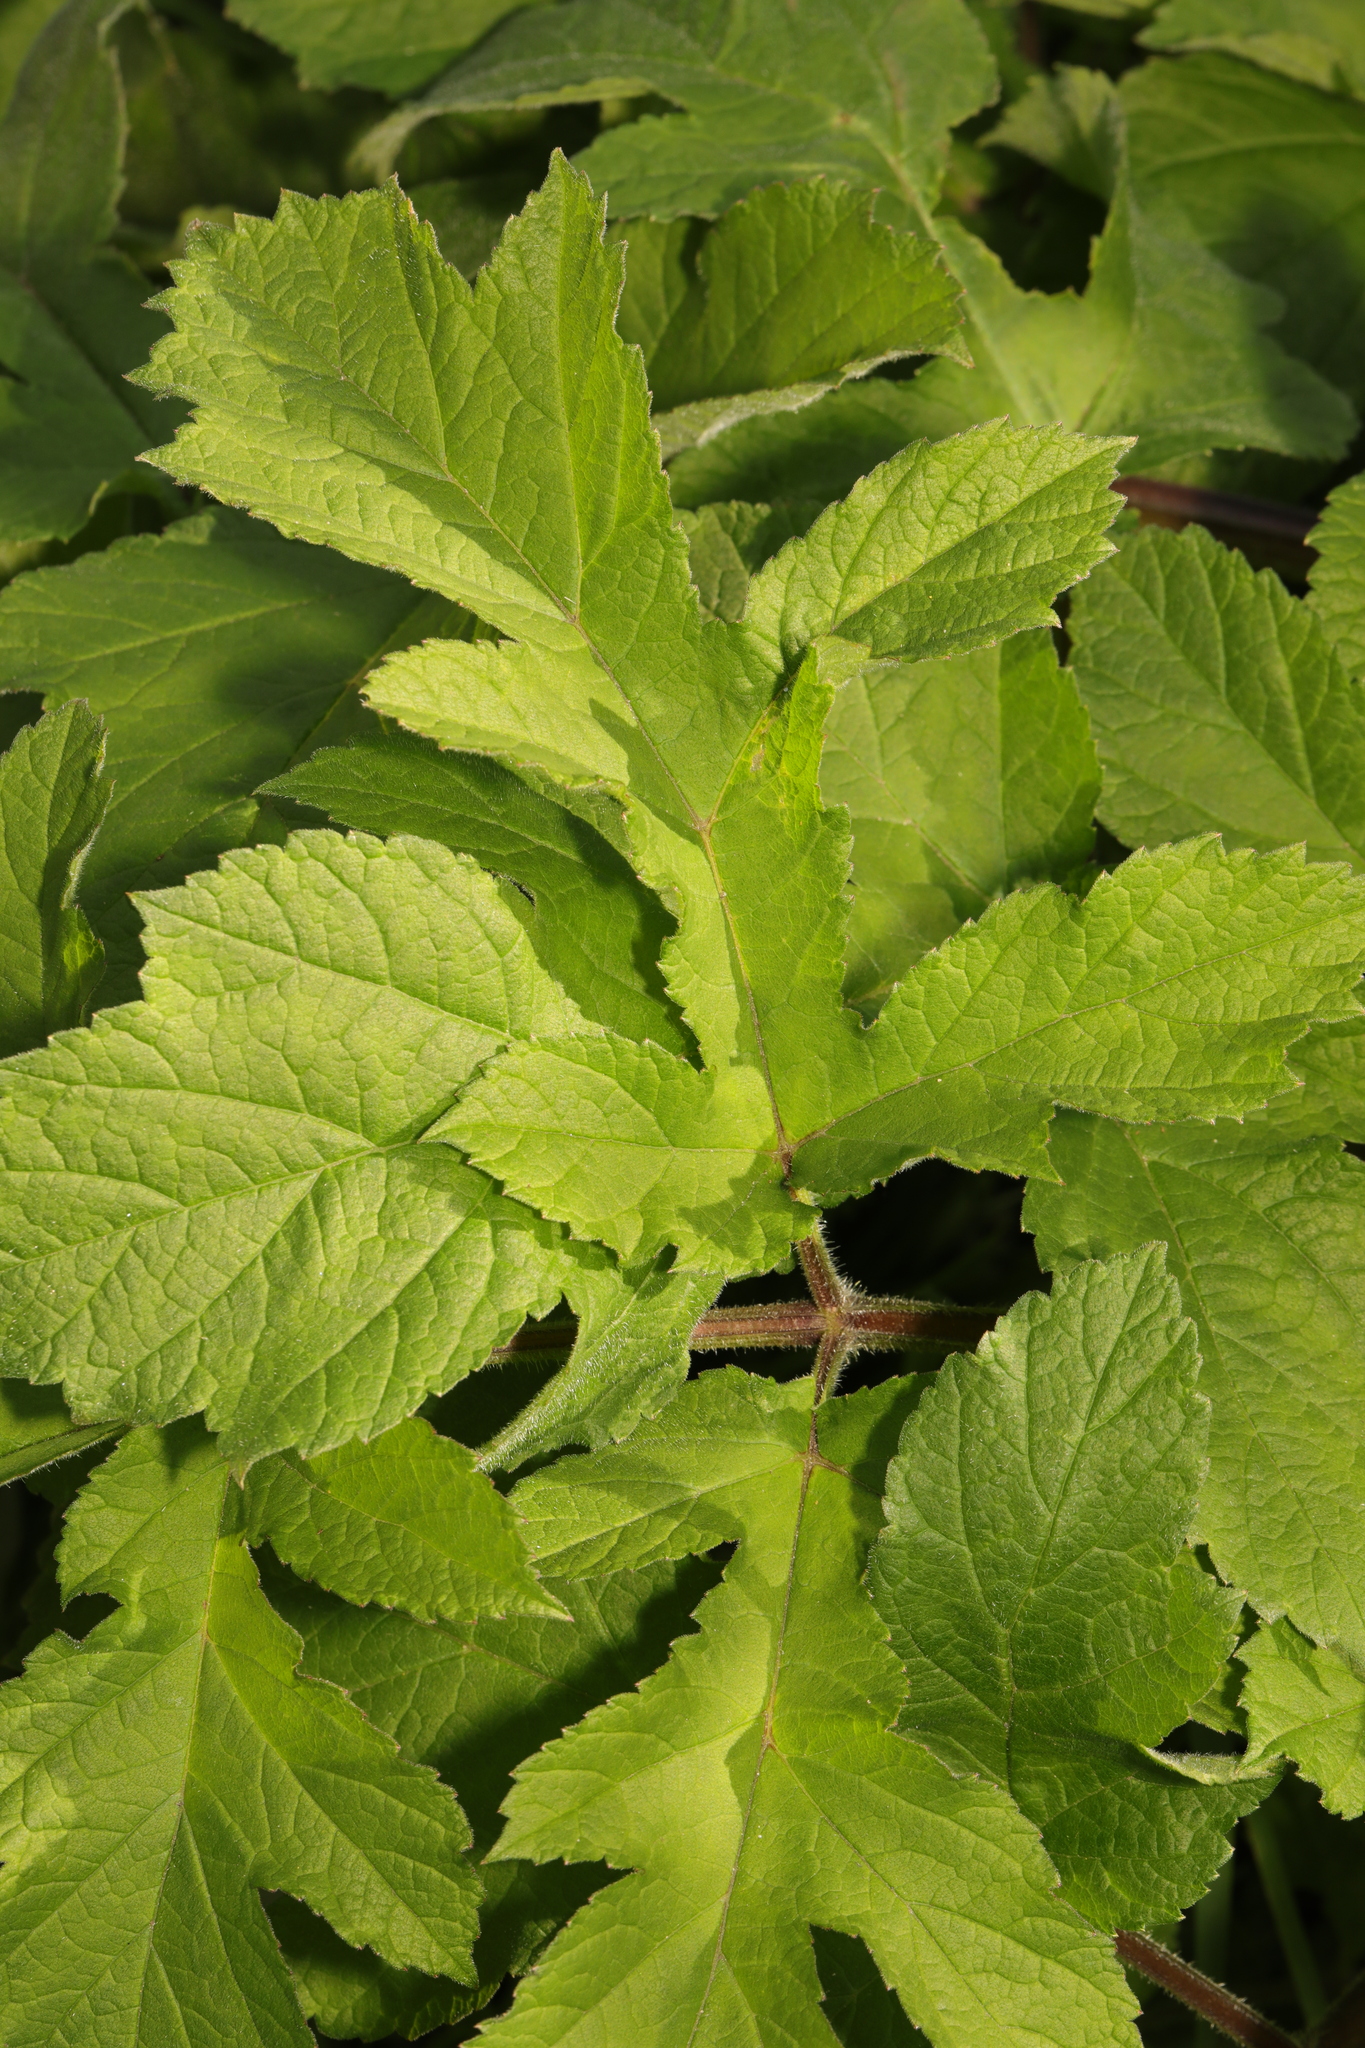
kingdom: Plantae
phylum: Tracheophyta
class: Magnoliopsida
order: Apiales
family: Apiaceae
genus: Heracleum
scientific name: Heracleum sphondylium
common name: Hogweed
